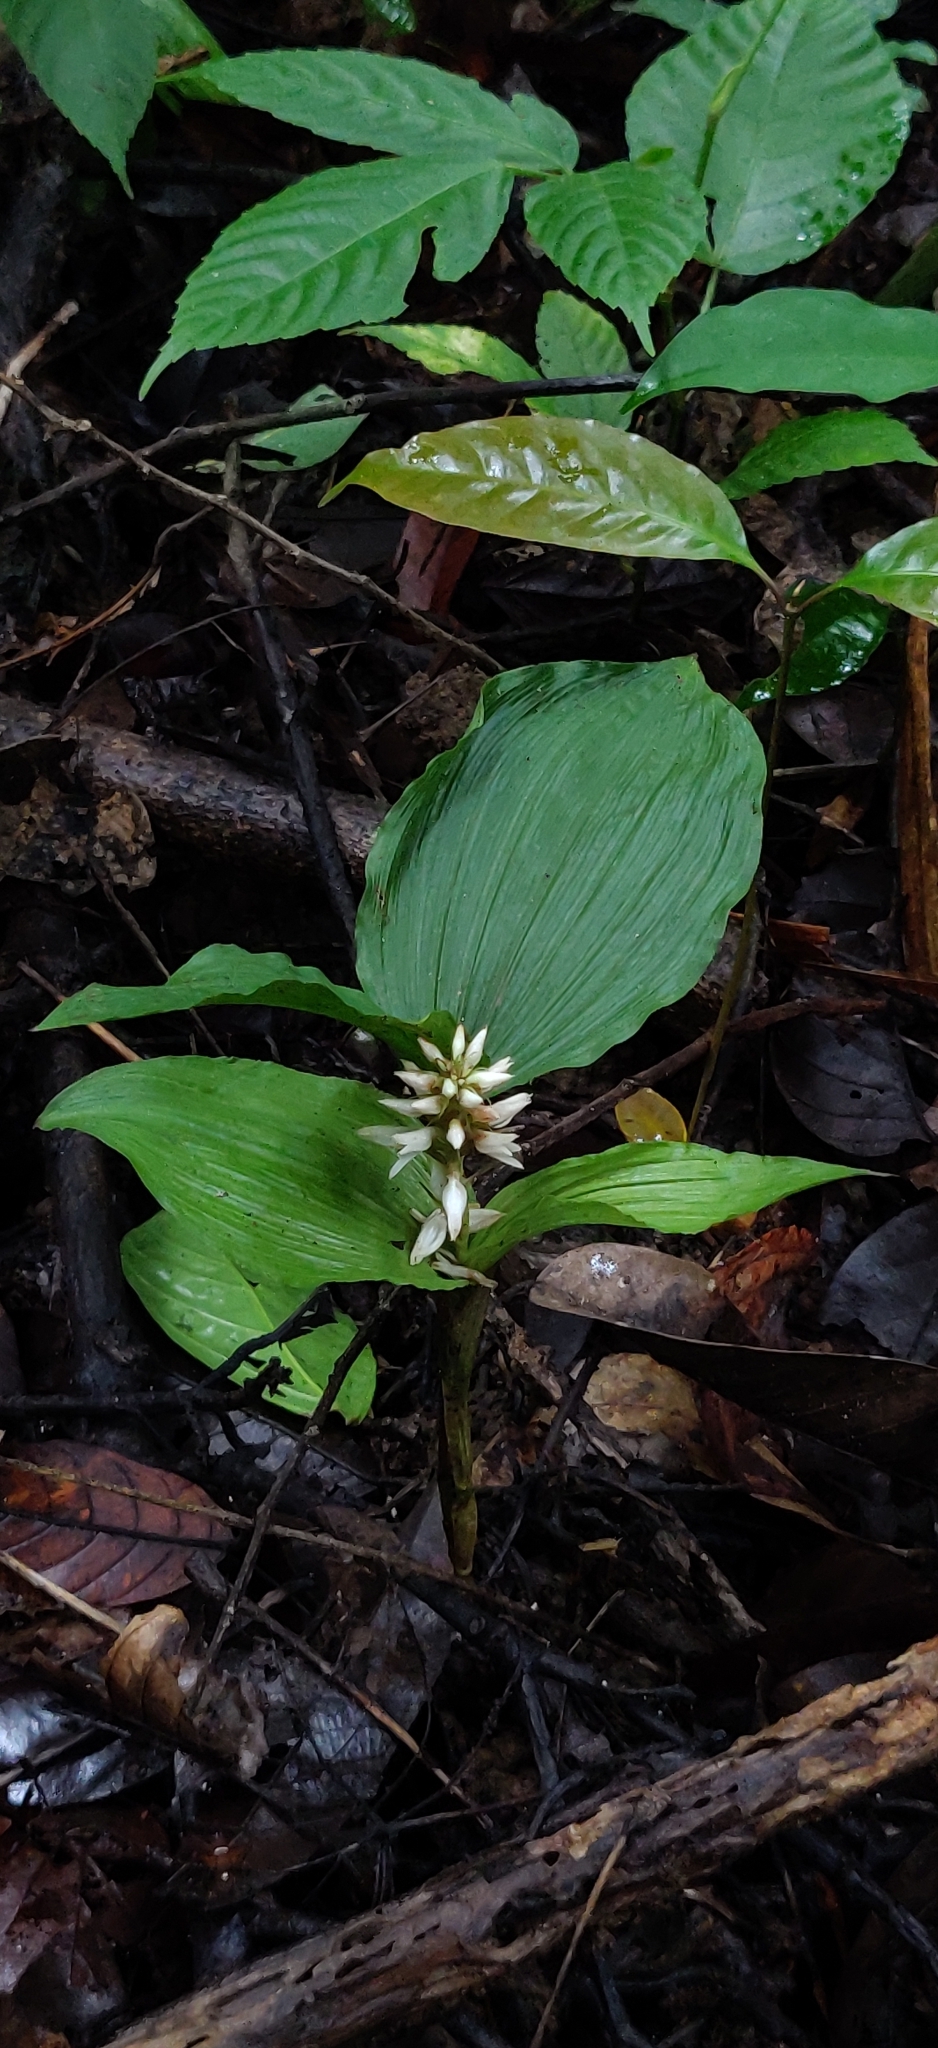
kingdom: Plantae
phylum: Tracheophyta
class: Liliopsida
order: Asparagales
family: Orchidaceae
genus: Tropidia
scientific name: Tropidia angulosa
